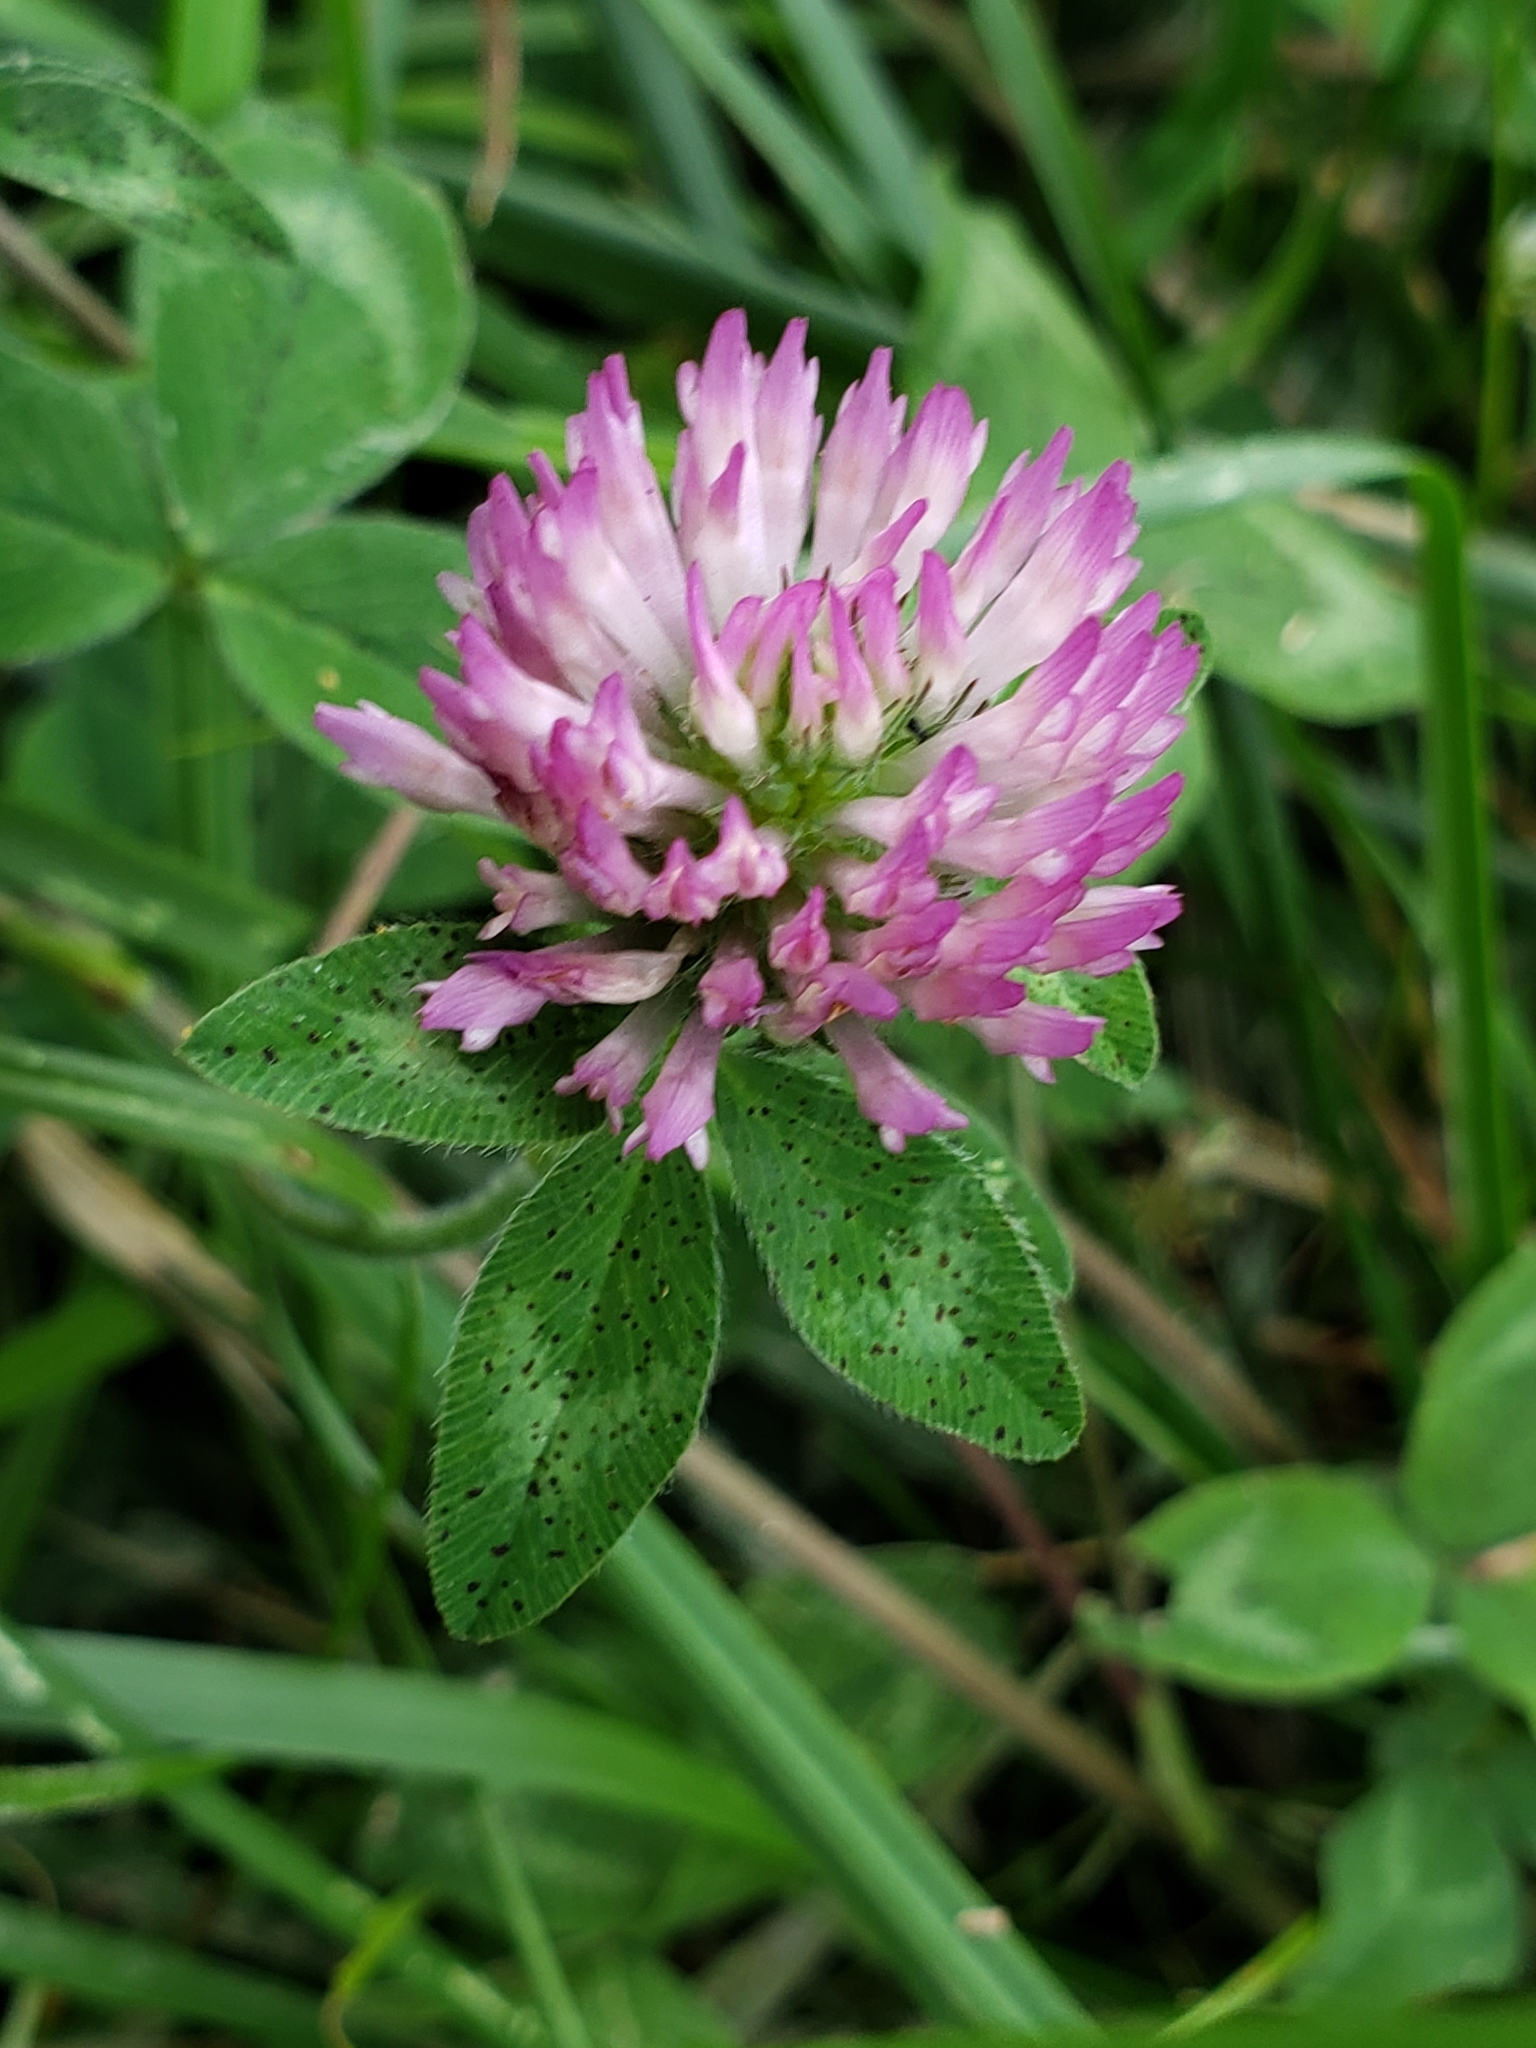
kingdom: Plantae
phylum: Tracheophyta
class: Magnoliopsida
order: Fabales
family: Fabaceae
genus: Trifolium
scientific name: Trifolium pratense
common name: Red clover
